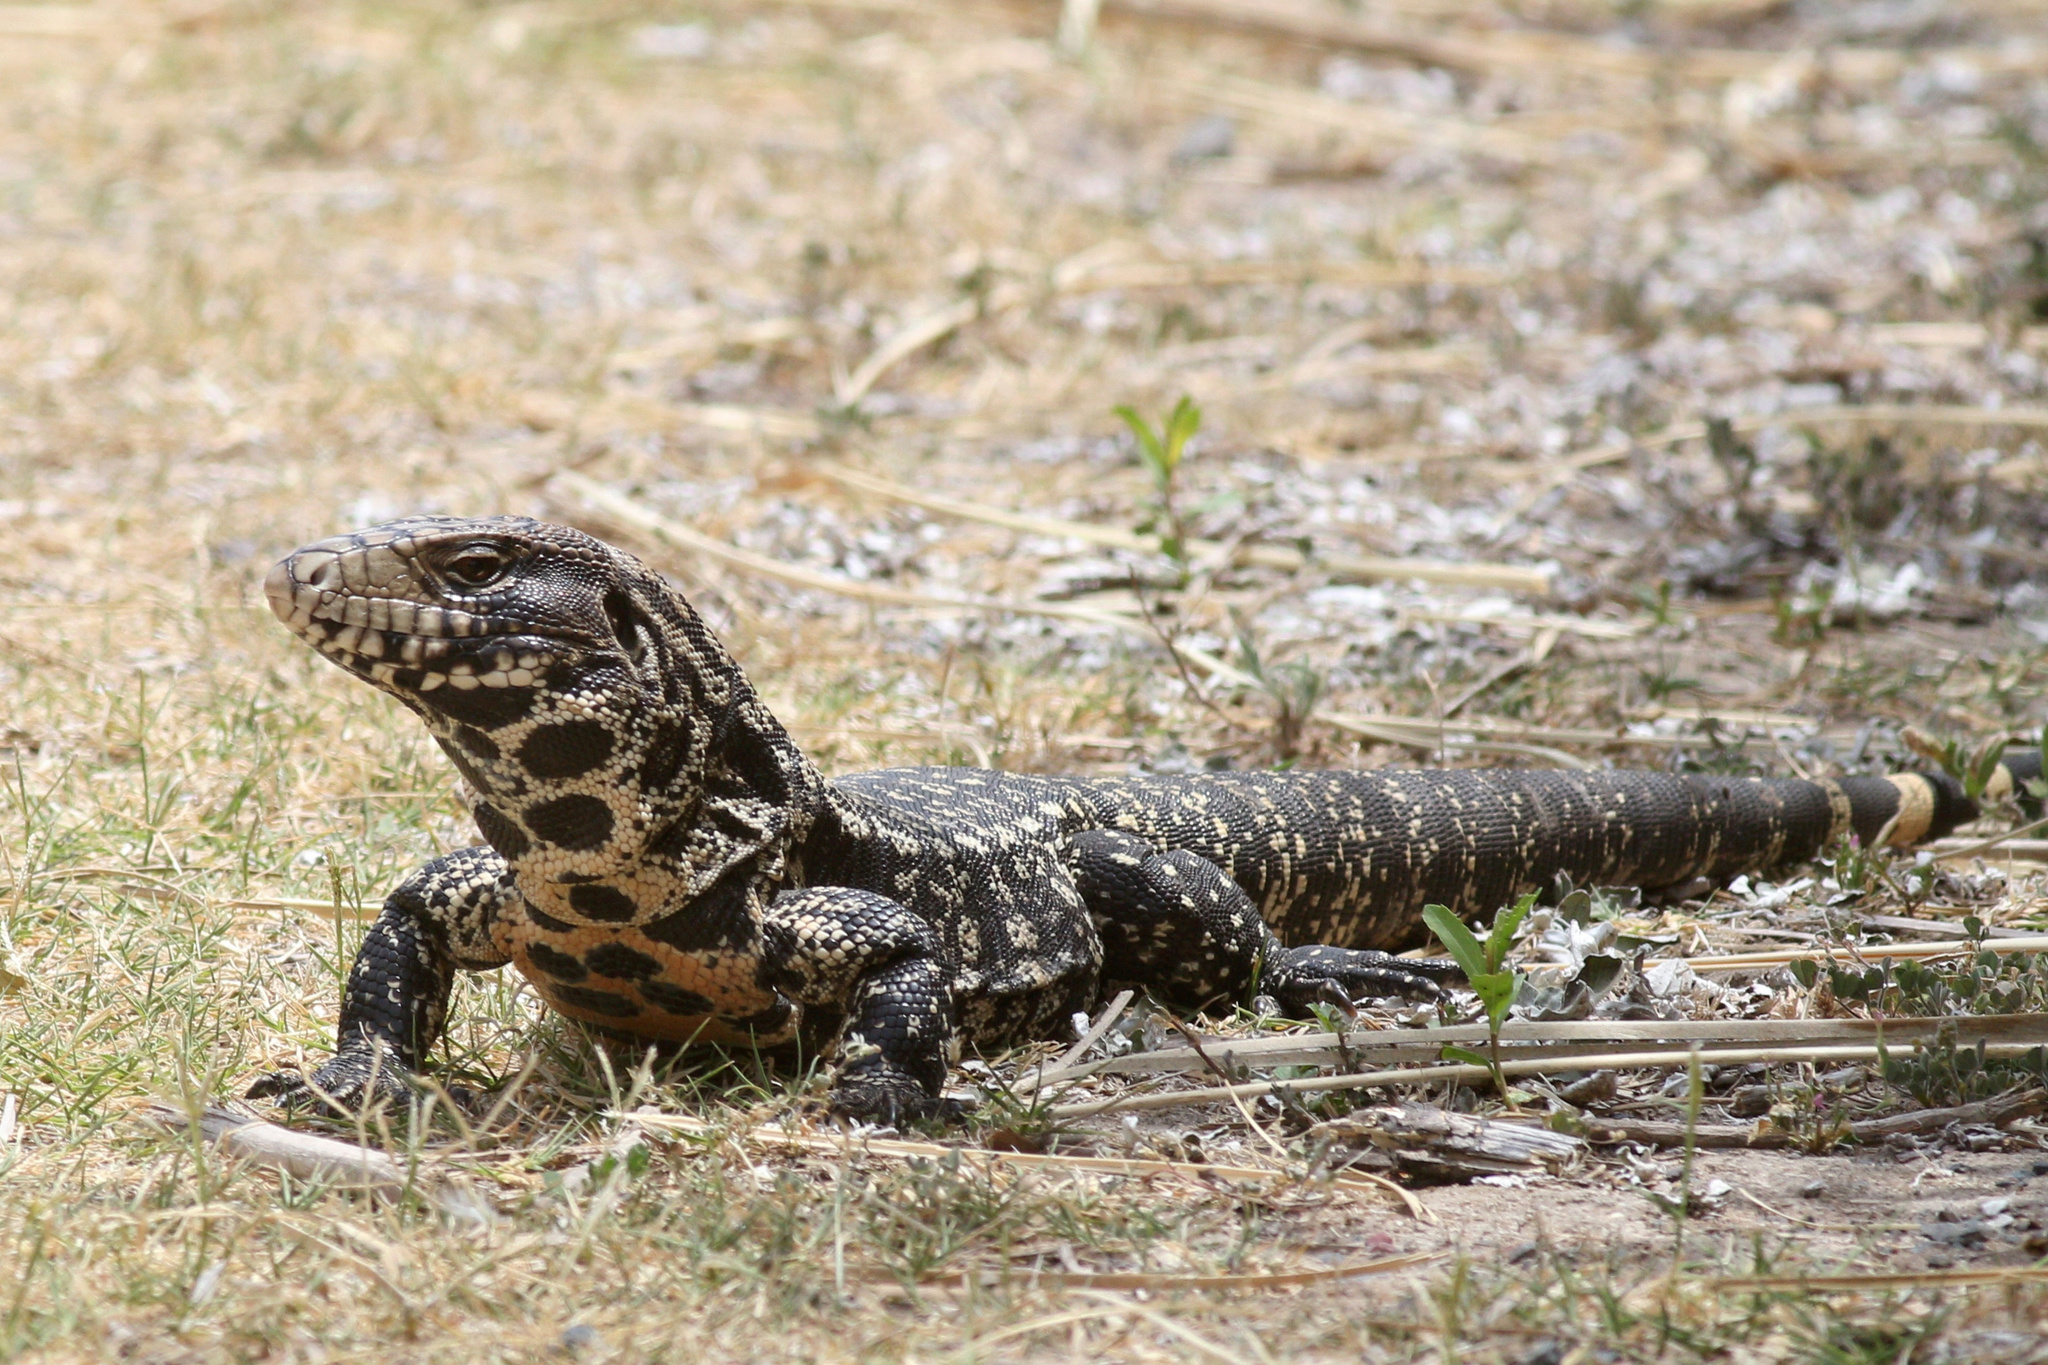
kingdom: Animalia
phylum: Chordata
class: Squamata
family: Teiidae
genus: Salvator
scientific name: Salvator merianae
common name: Argentine black and white tegu
